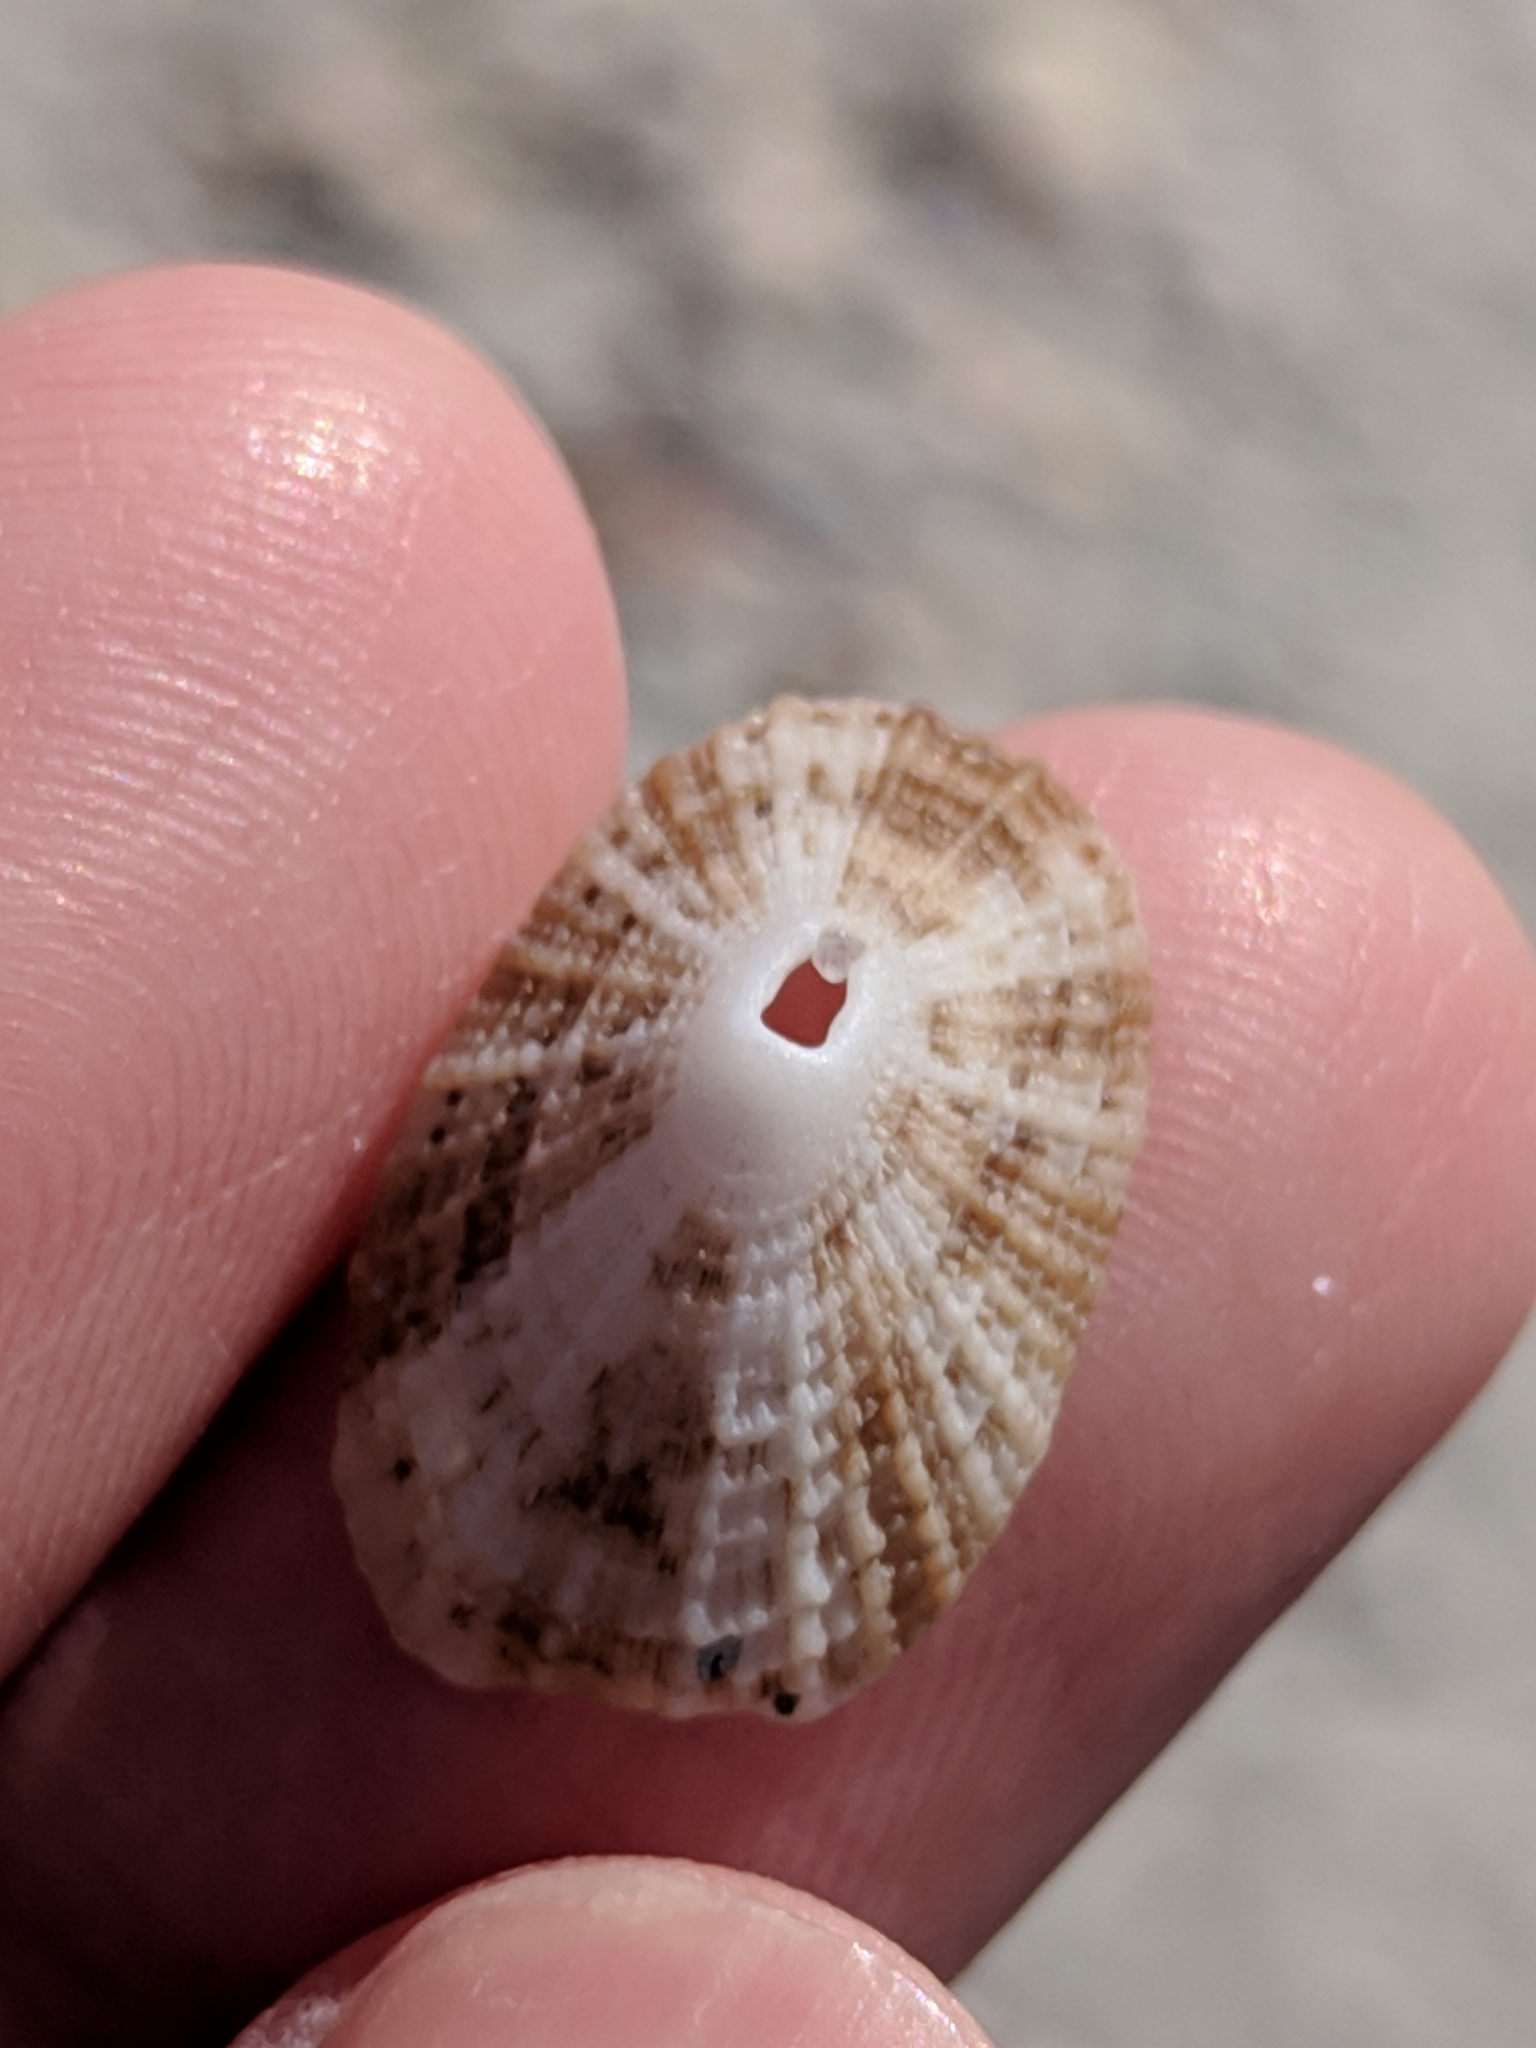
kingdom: Animalia
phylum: Mollusca
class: Gastropoda
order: Lepetellida
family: Fissurellidae
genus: Diodora
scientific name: Diodora cayenensis
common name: Cayenne keyhole limpet
